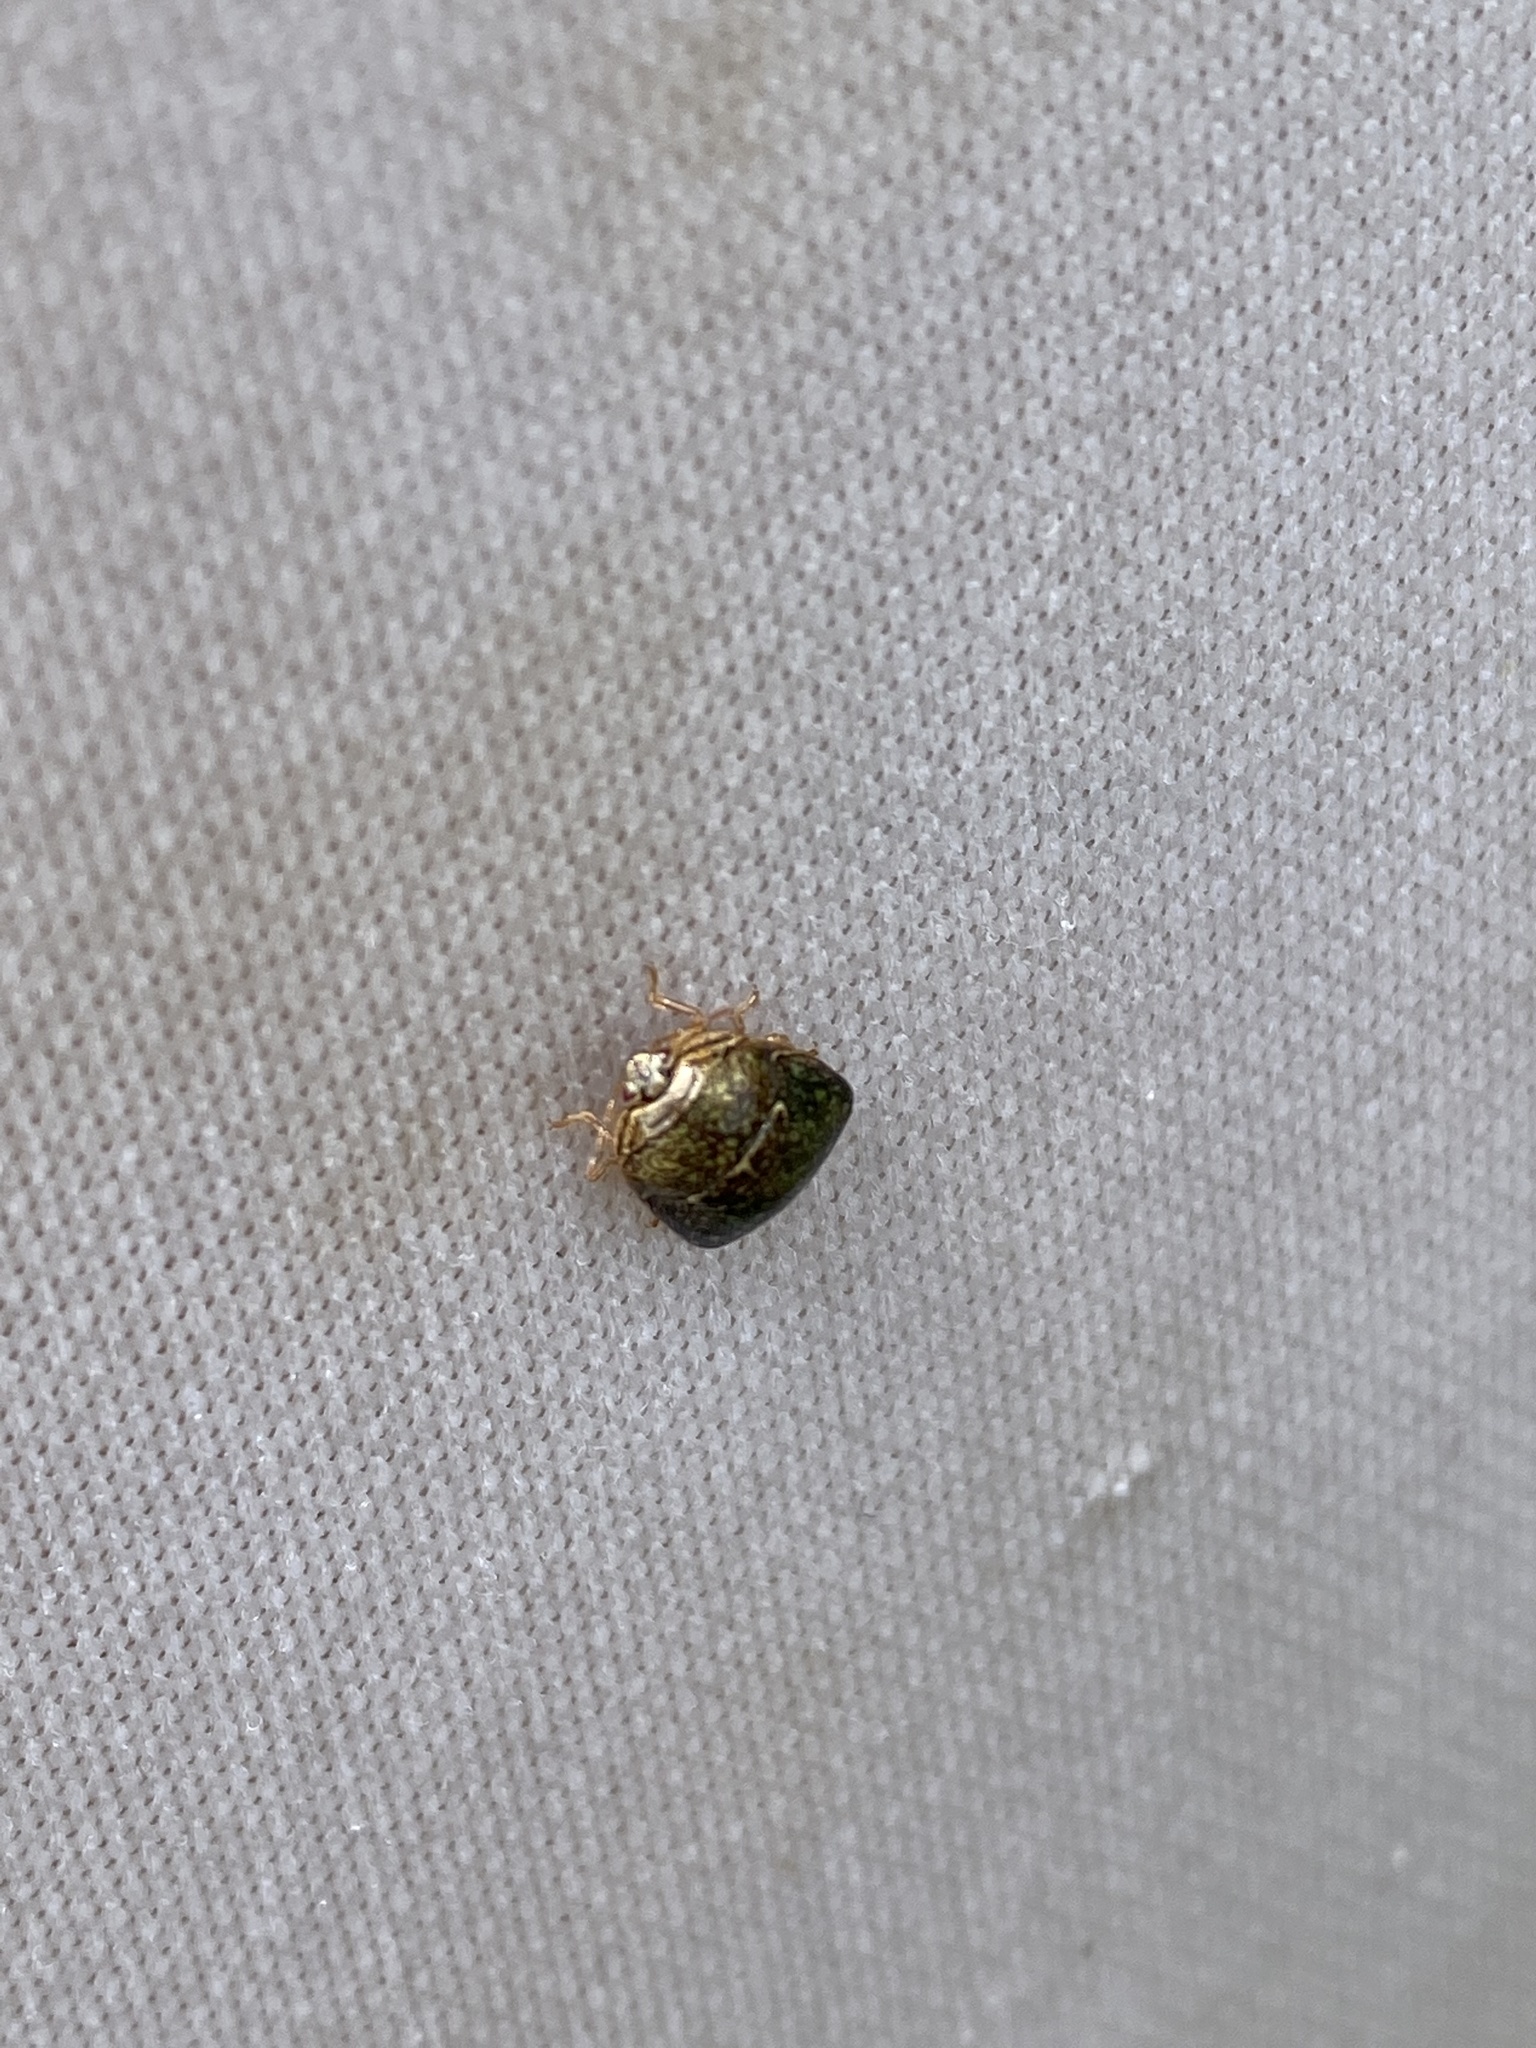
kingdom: Animalia
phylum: Arthropoda
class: Insecta
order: Hemiptera
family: Plataspidae
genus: Megacopta
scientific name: Megacopta cribraria
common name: Bean plataspid
